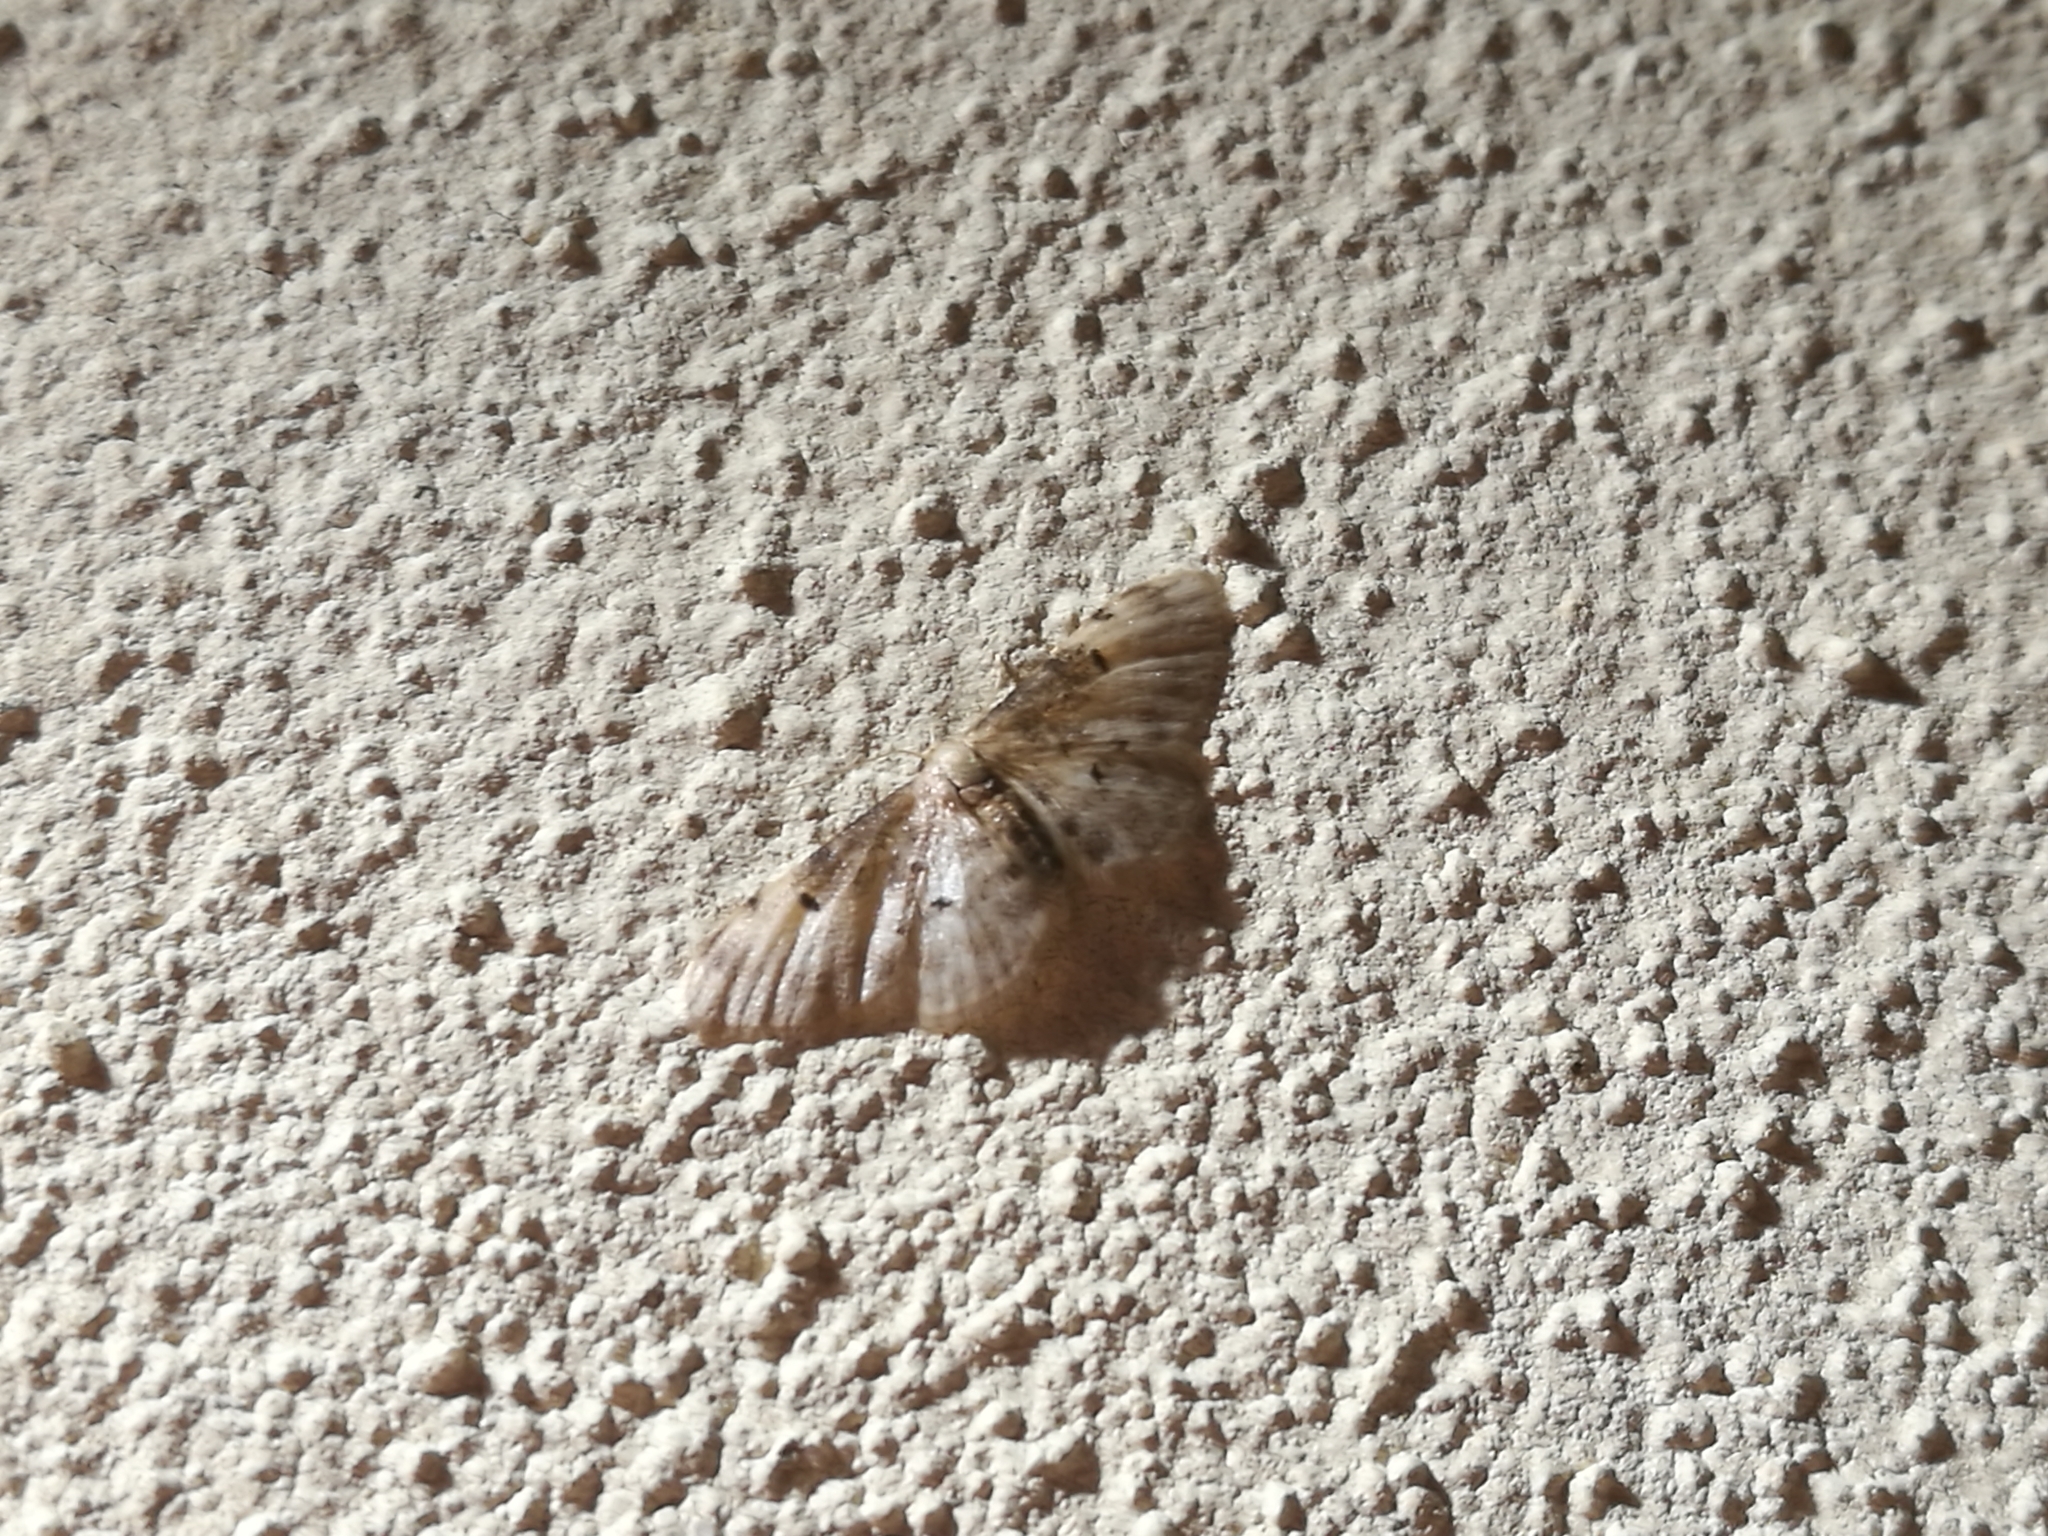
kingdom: Animalia
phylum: Arthropoda
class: Insecta
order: Lepidoptera
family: Geometridae
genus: Idaea
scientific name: Idaea filicata
